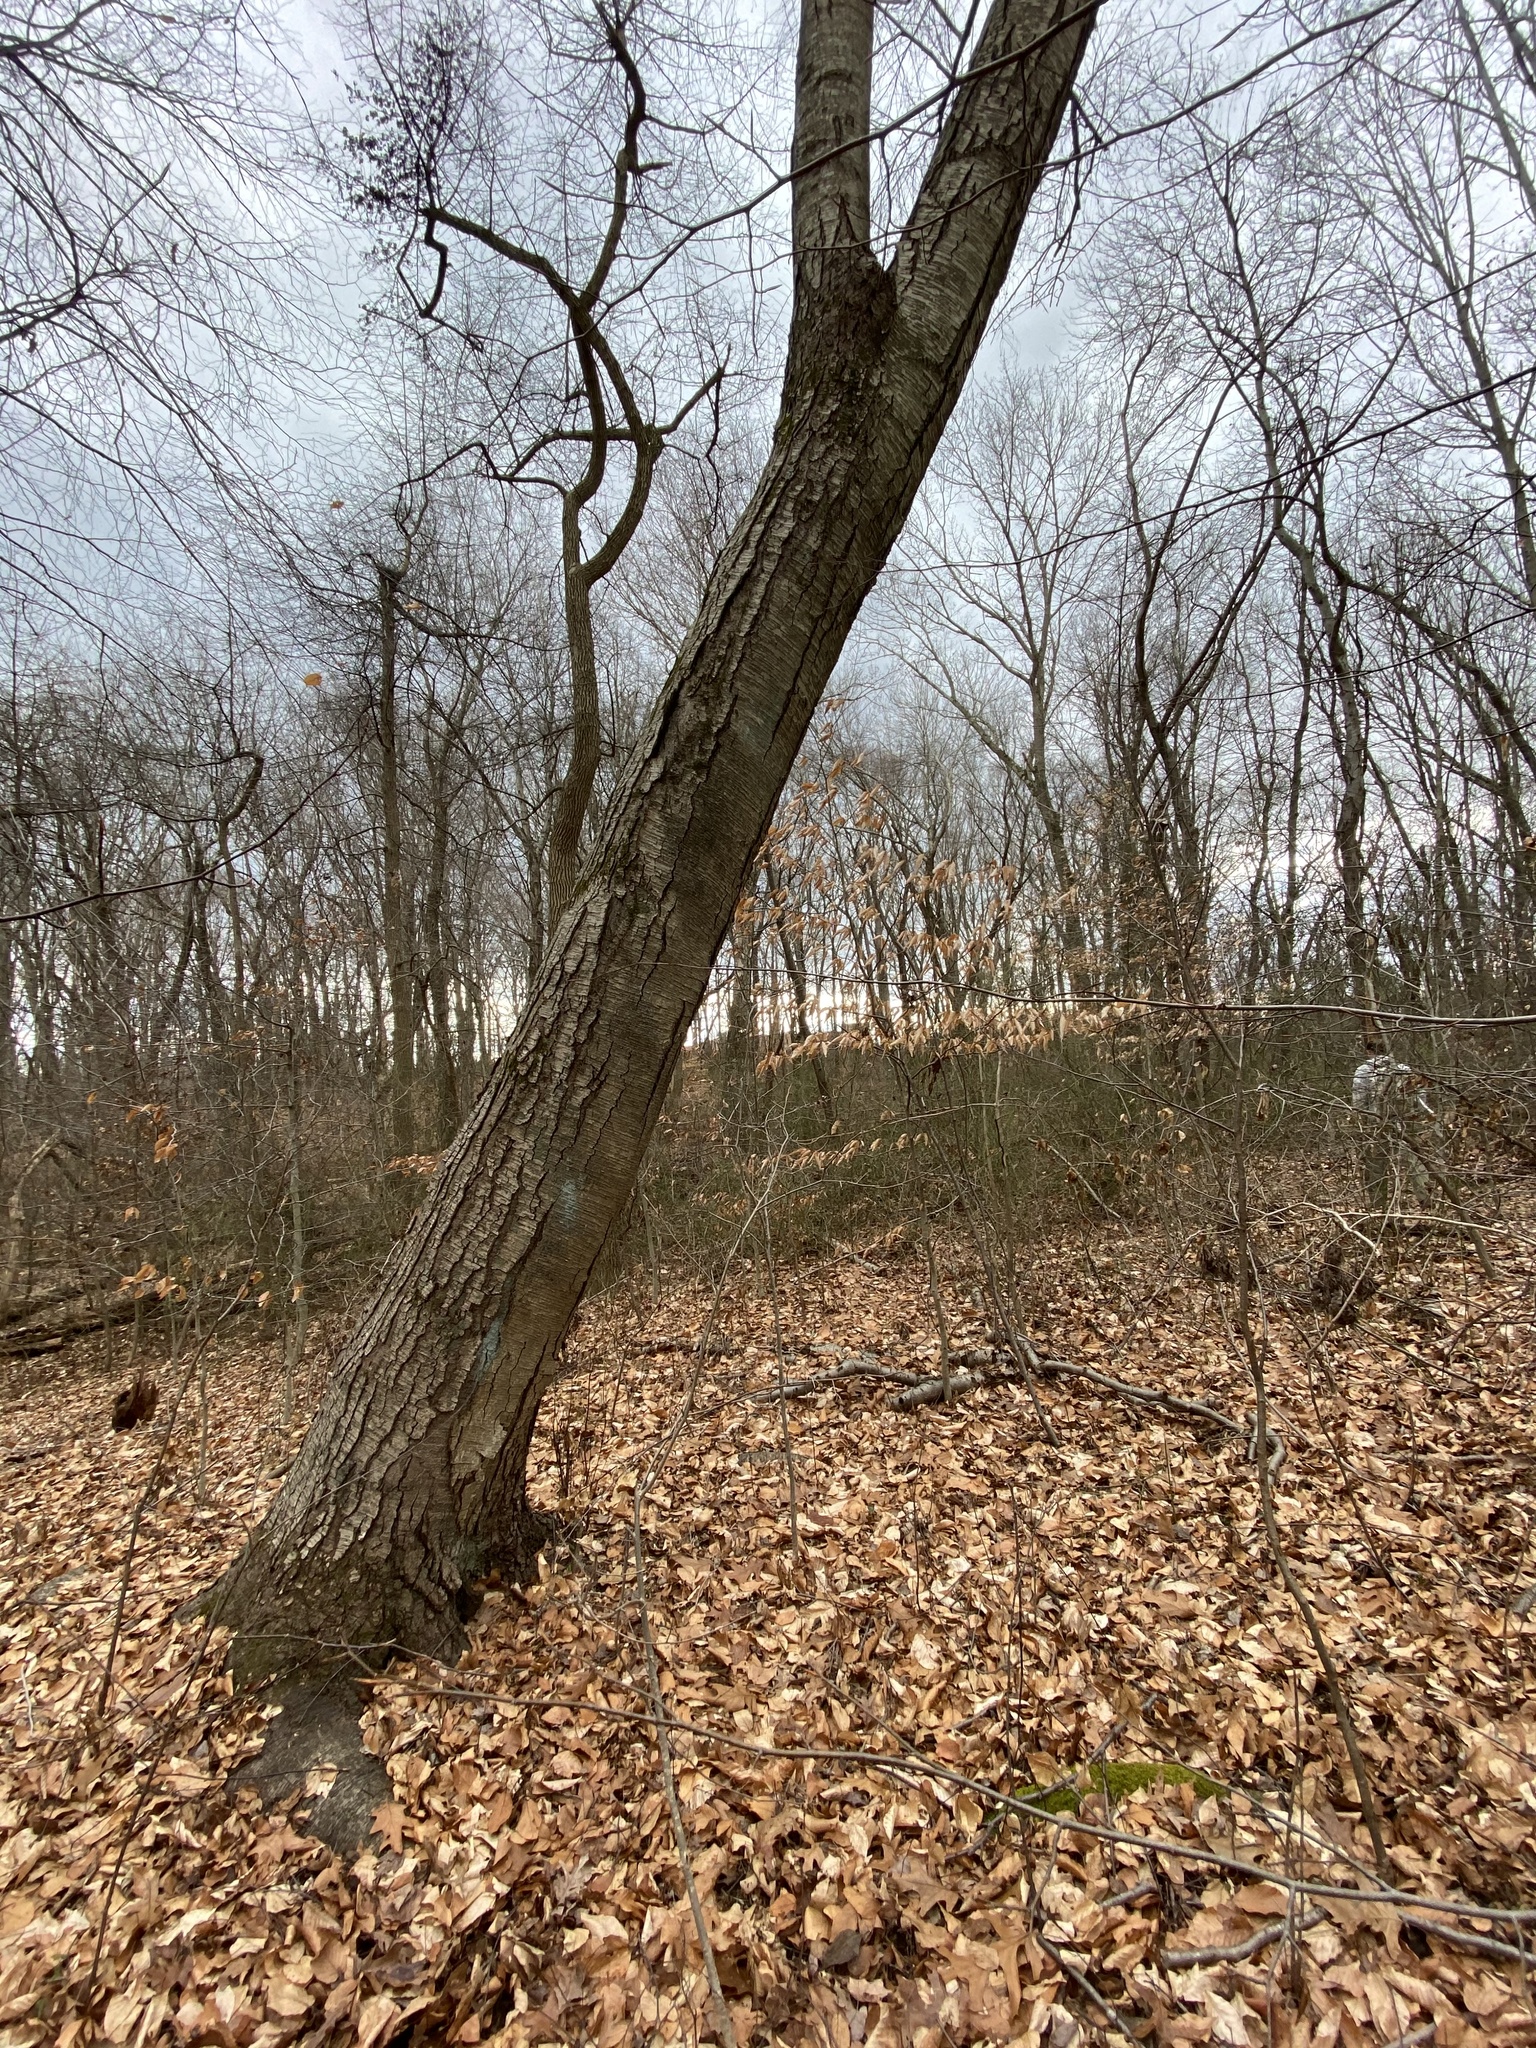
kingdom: Plantae
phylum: Tracheophyta
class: Magnoliopsida
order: Fagales
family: Betulaceae
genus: Betula
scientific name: Betula lenta
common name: Black birch
